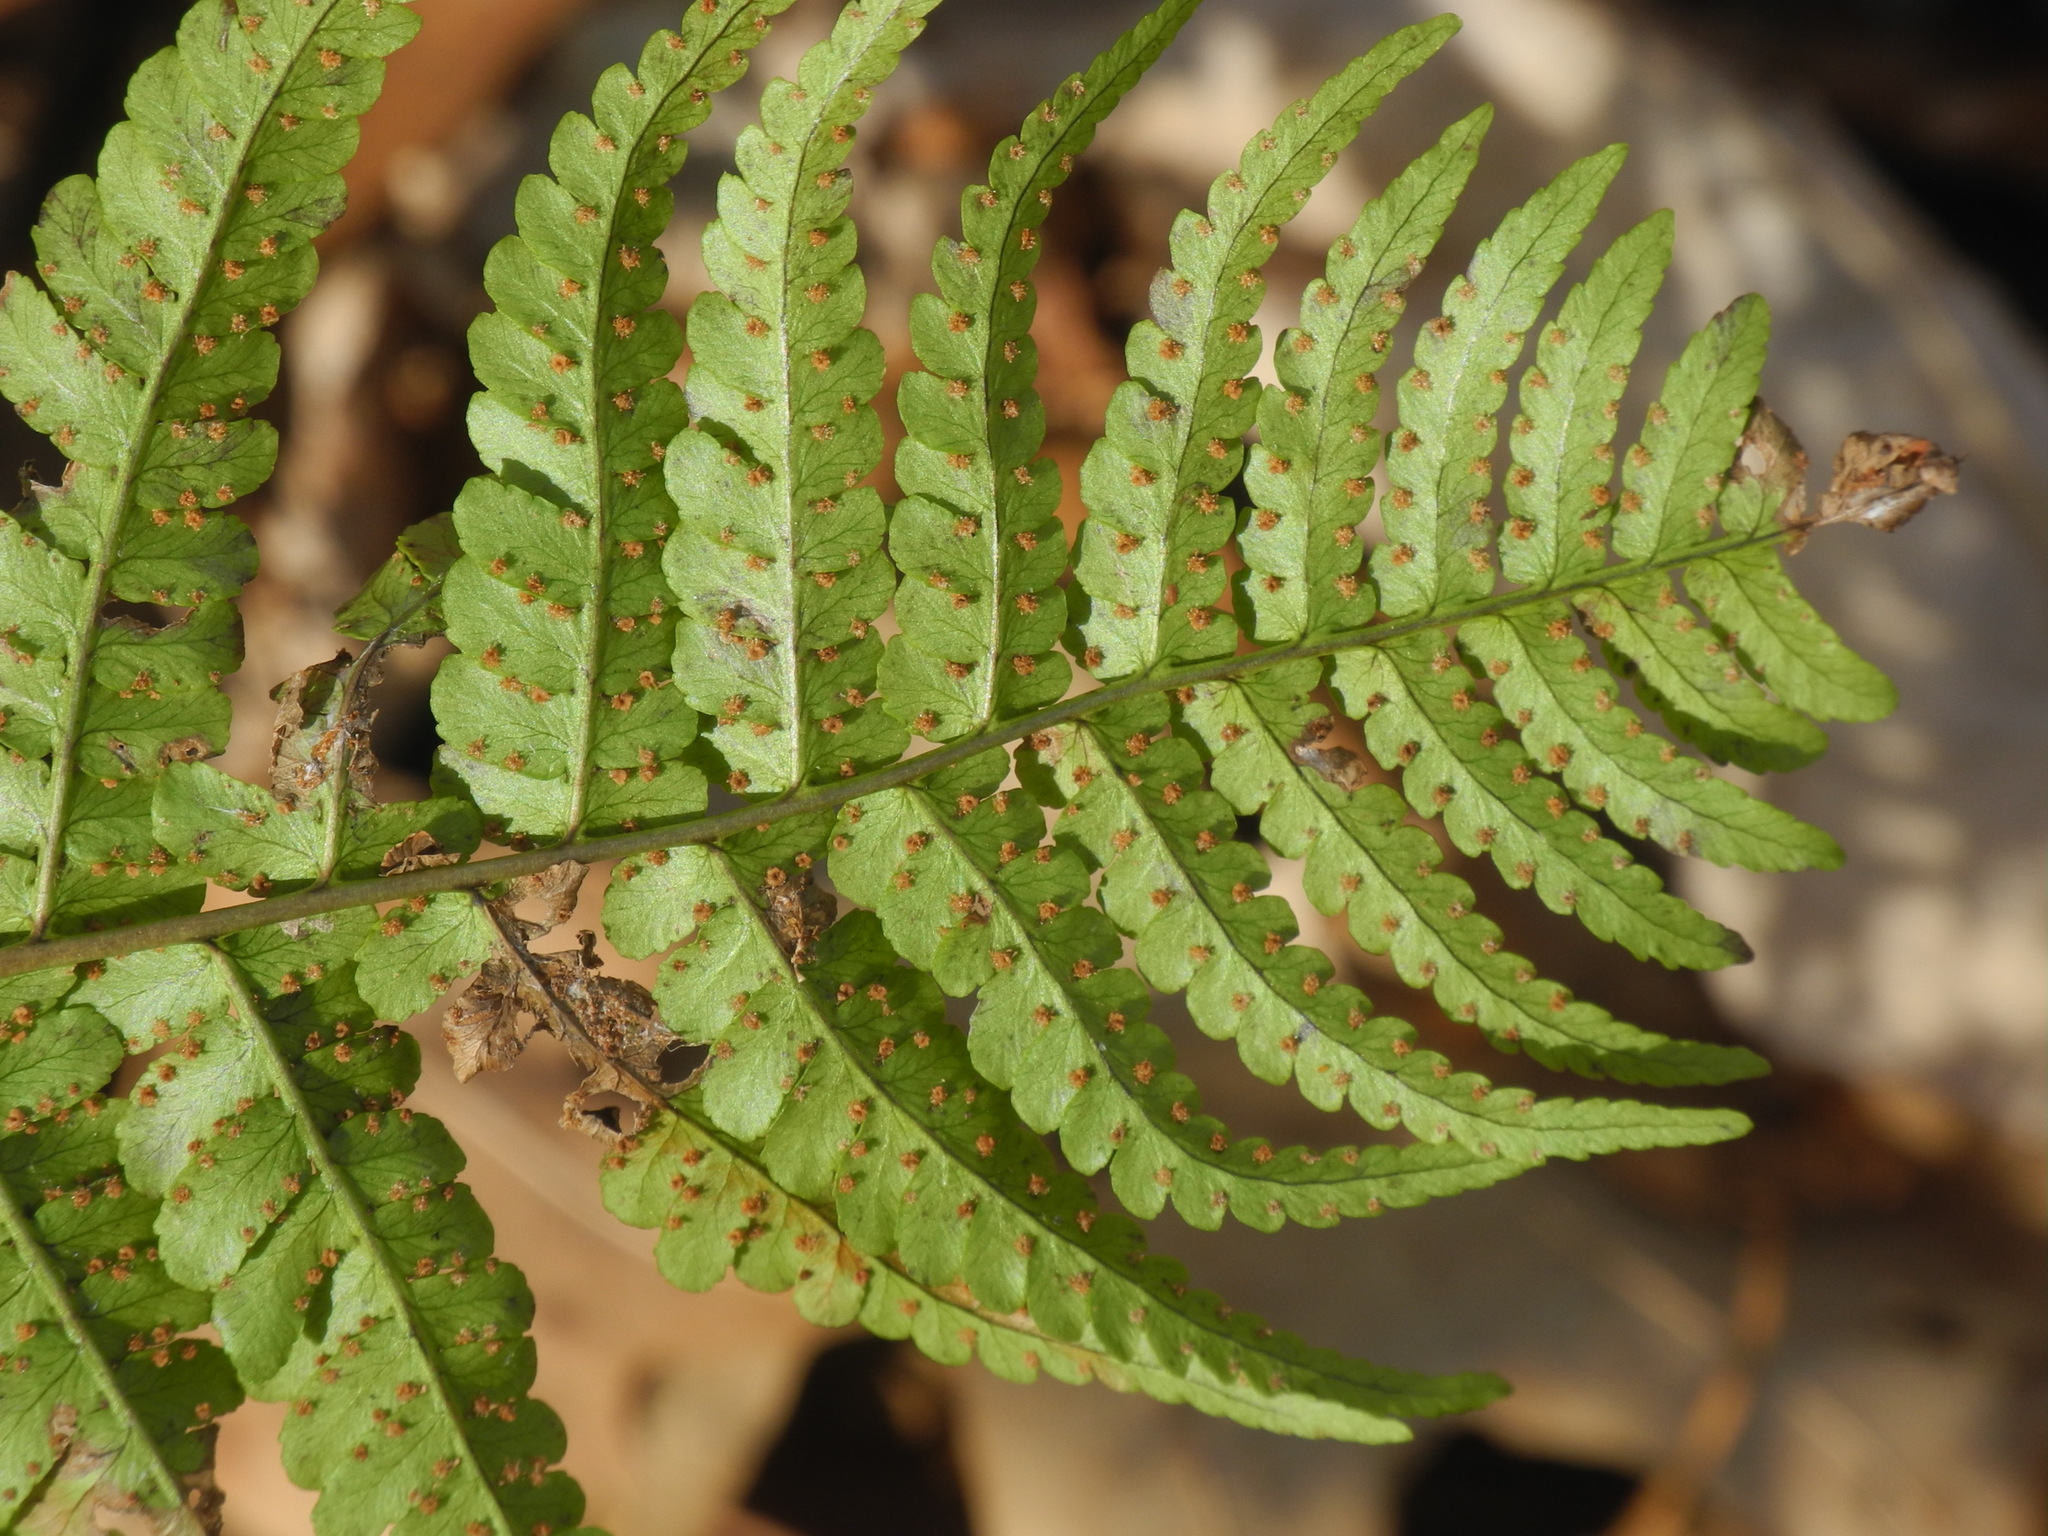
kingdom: Plantae
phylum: Tracheophyta
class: Polypodiopsida
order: Polypodiales
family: Dryopteridaceae
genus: Dryopteris
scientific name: Dryopteris marginalis
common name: Marginal wood fern
